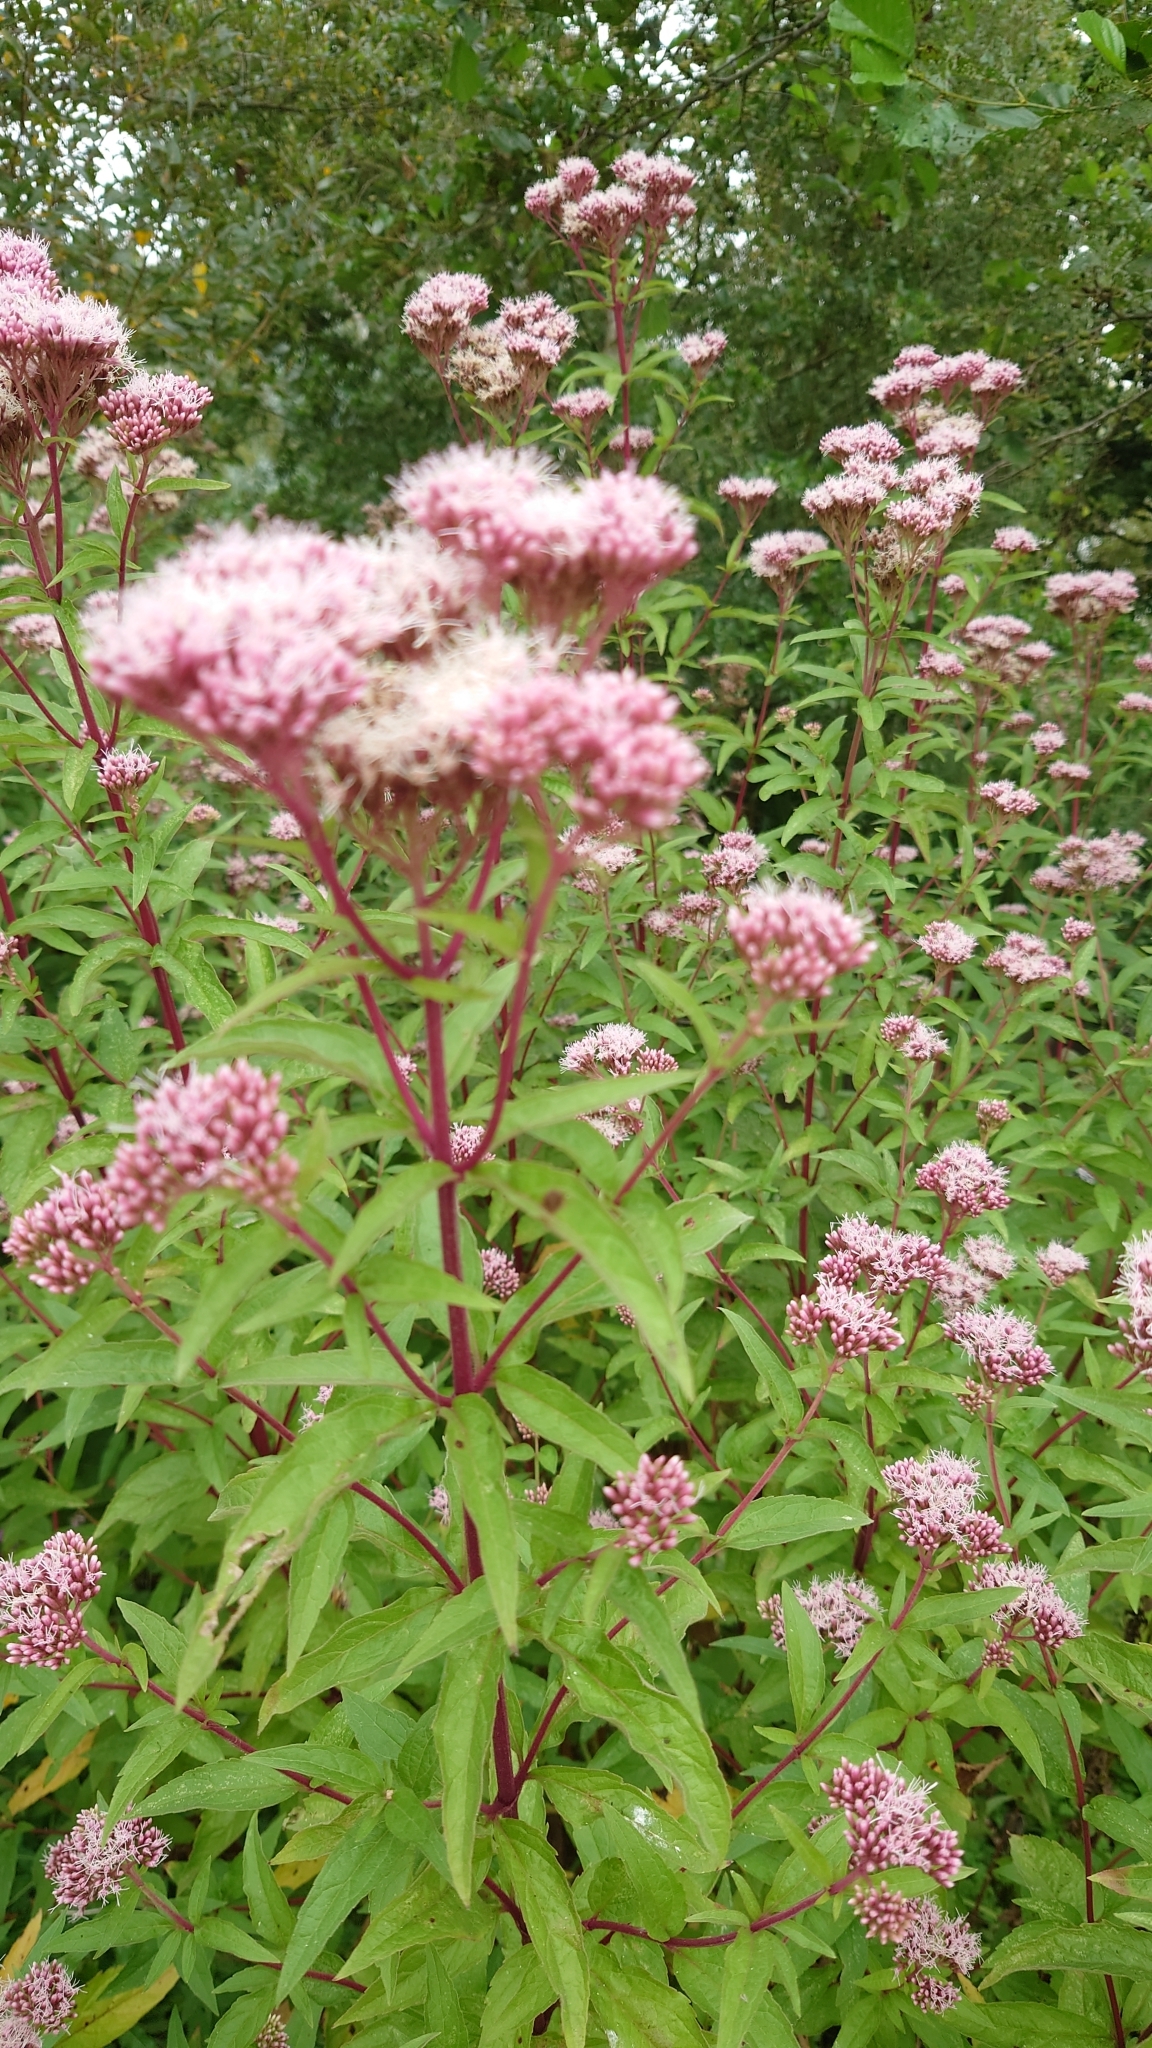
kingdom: Plantae
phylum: Tracheophyta
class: Magnoliopsida
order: Asterales
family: Asteraceae
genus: Eupatorium
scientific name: Eupatorium cannabinum
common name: Hemp-agrimony
